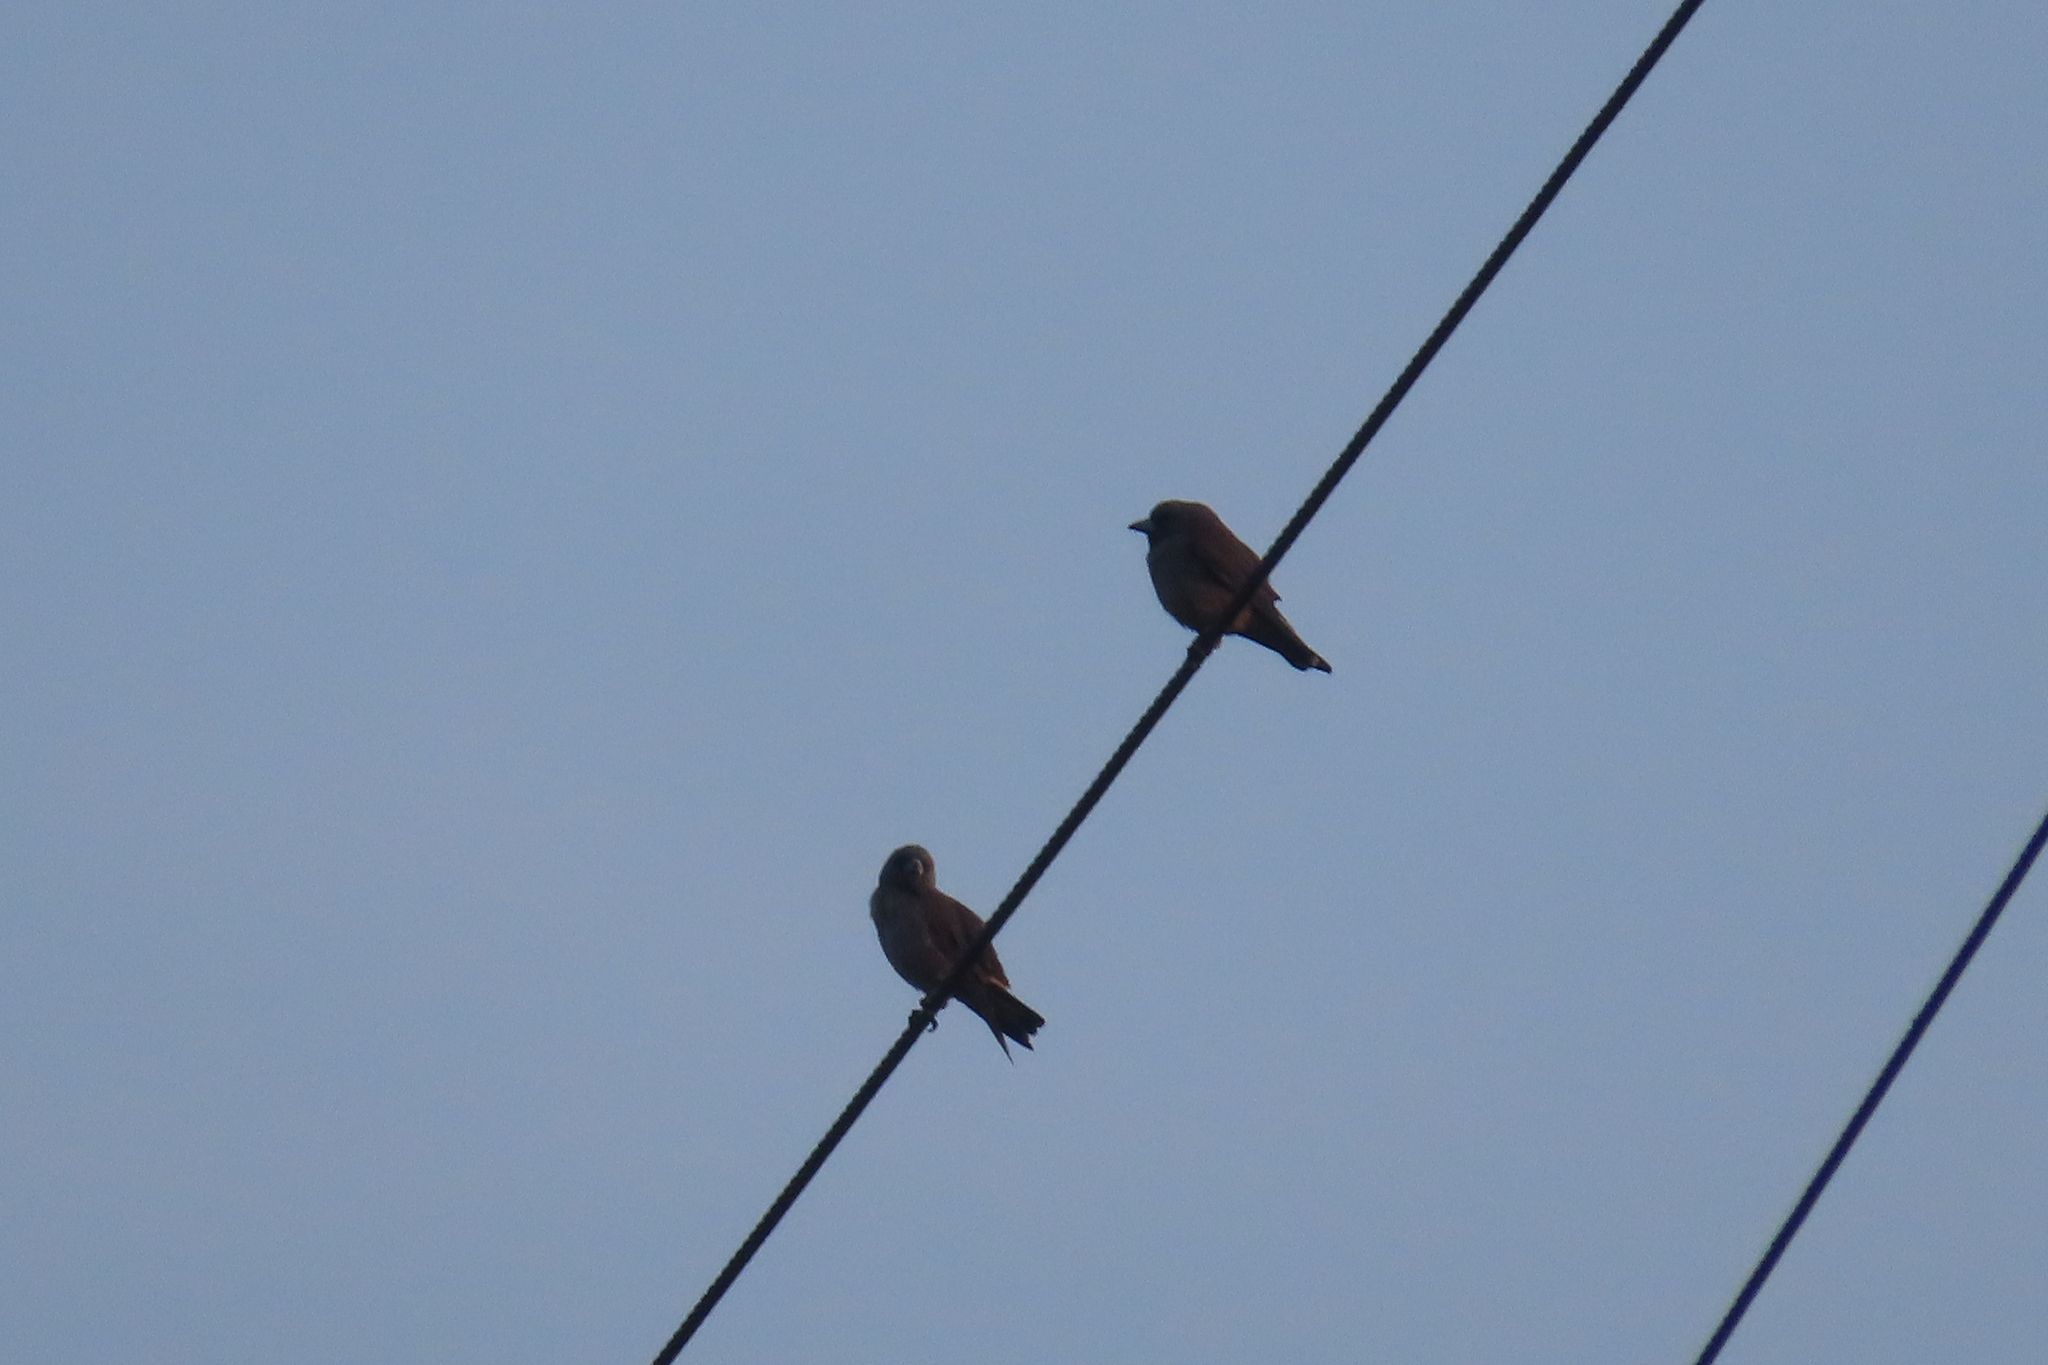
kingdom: Animalia
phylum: Chordata
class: Aves
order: Passeriformes
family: Artamidae
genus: Artamus
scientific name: Artamus fuscus
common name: Ashy woodswallow
